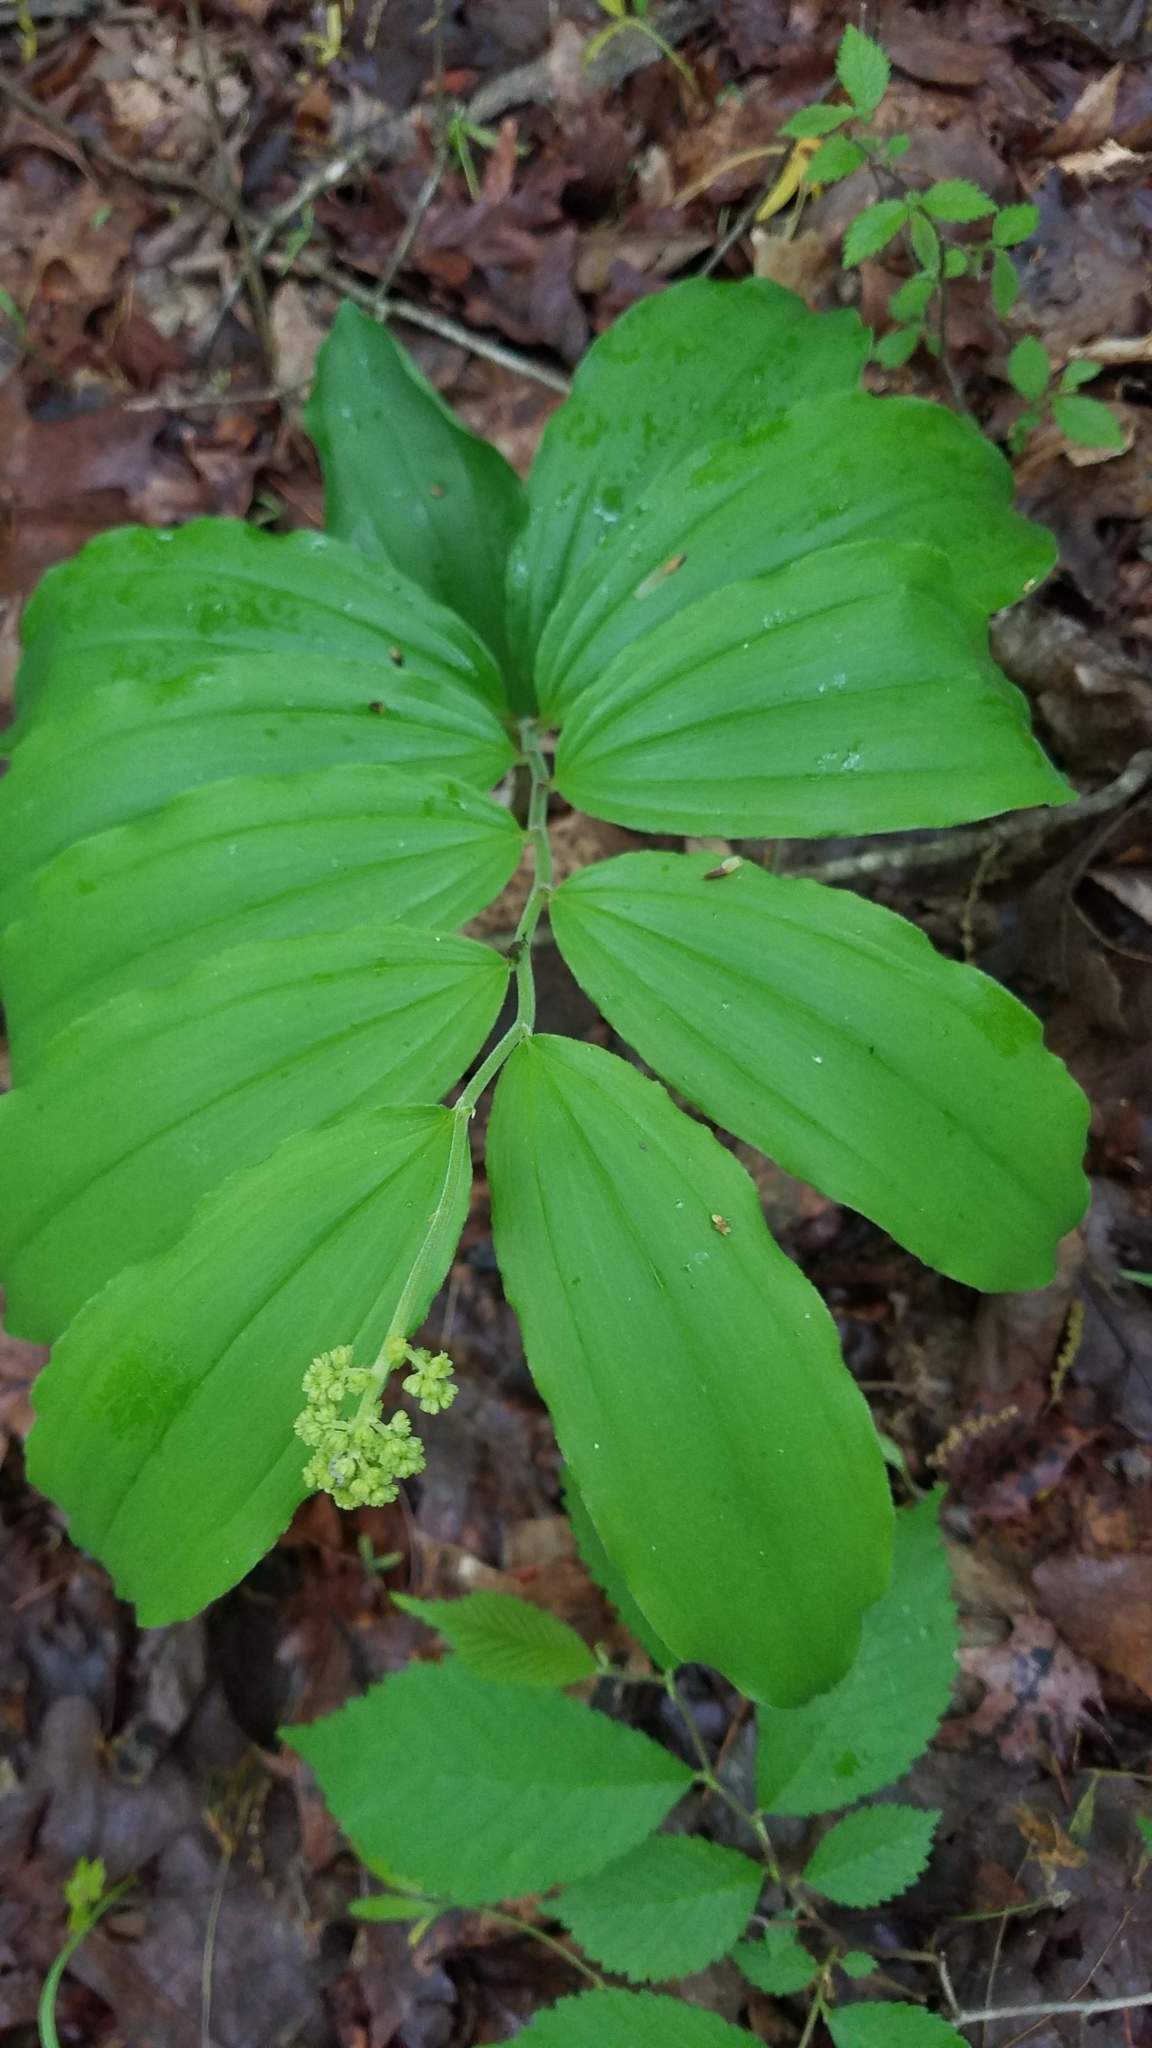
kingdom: Plantae
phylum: Tracheophyta
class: Liliopsida
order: Asparagales
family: Asparagaceae
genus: Maianthemum
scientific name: Maianthemum racemosum
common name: False spikenard
